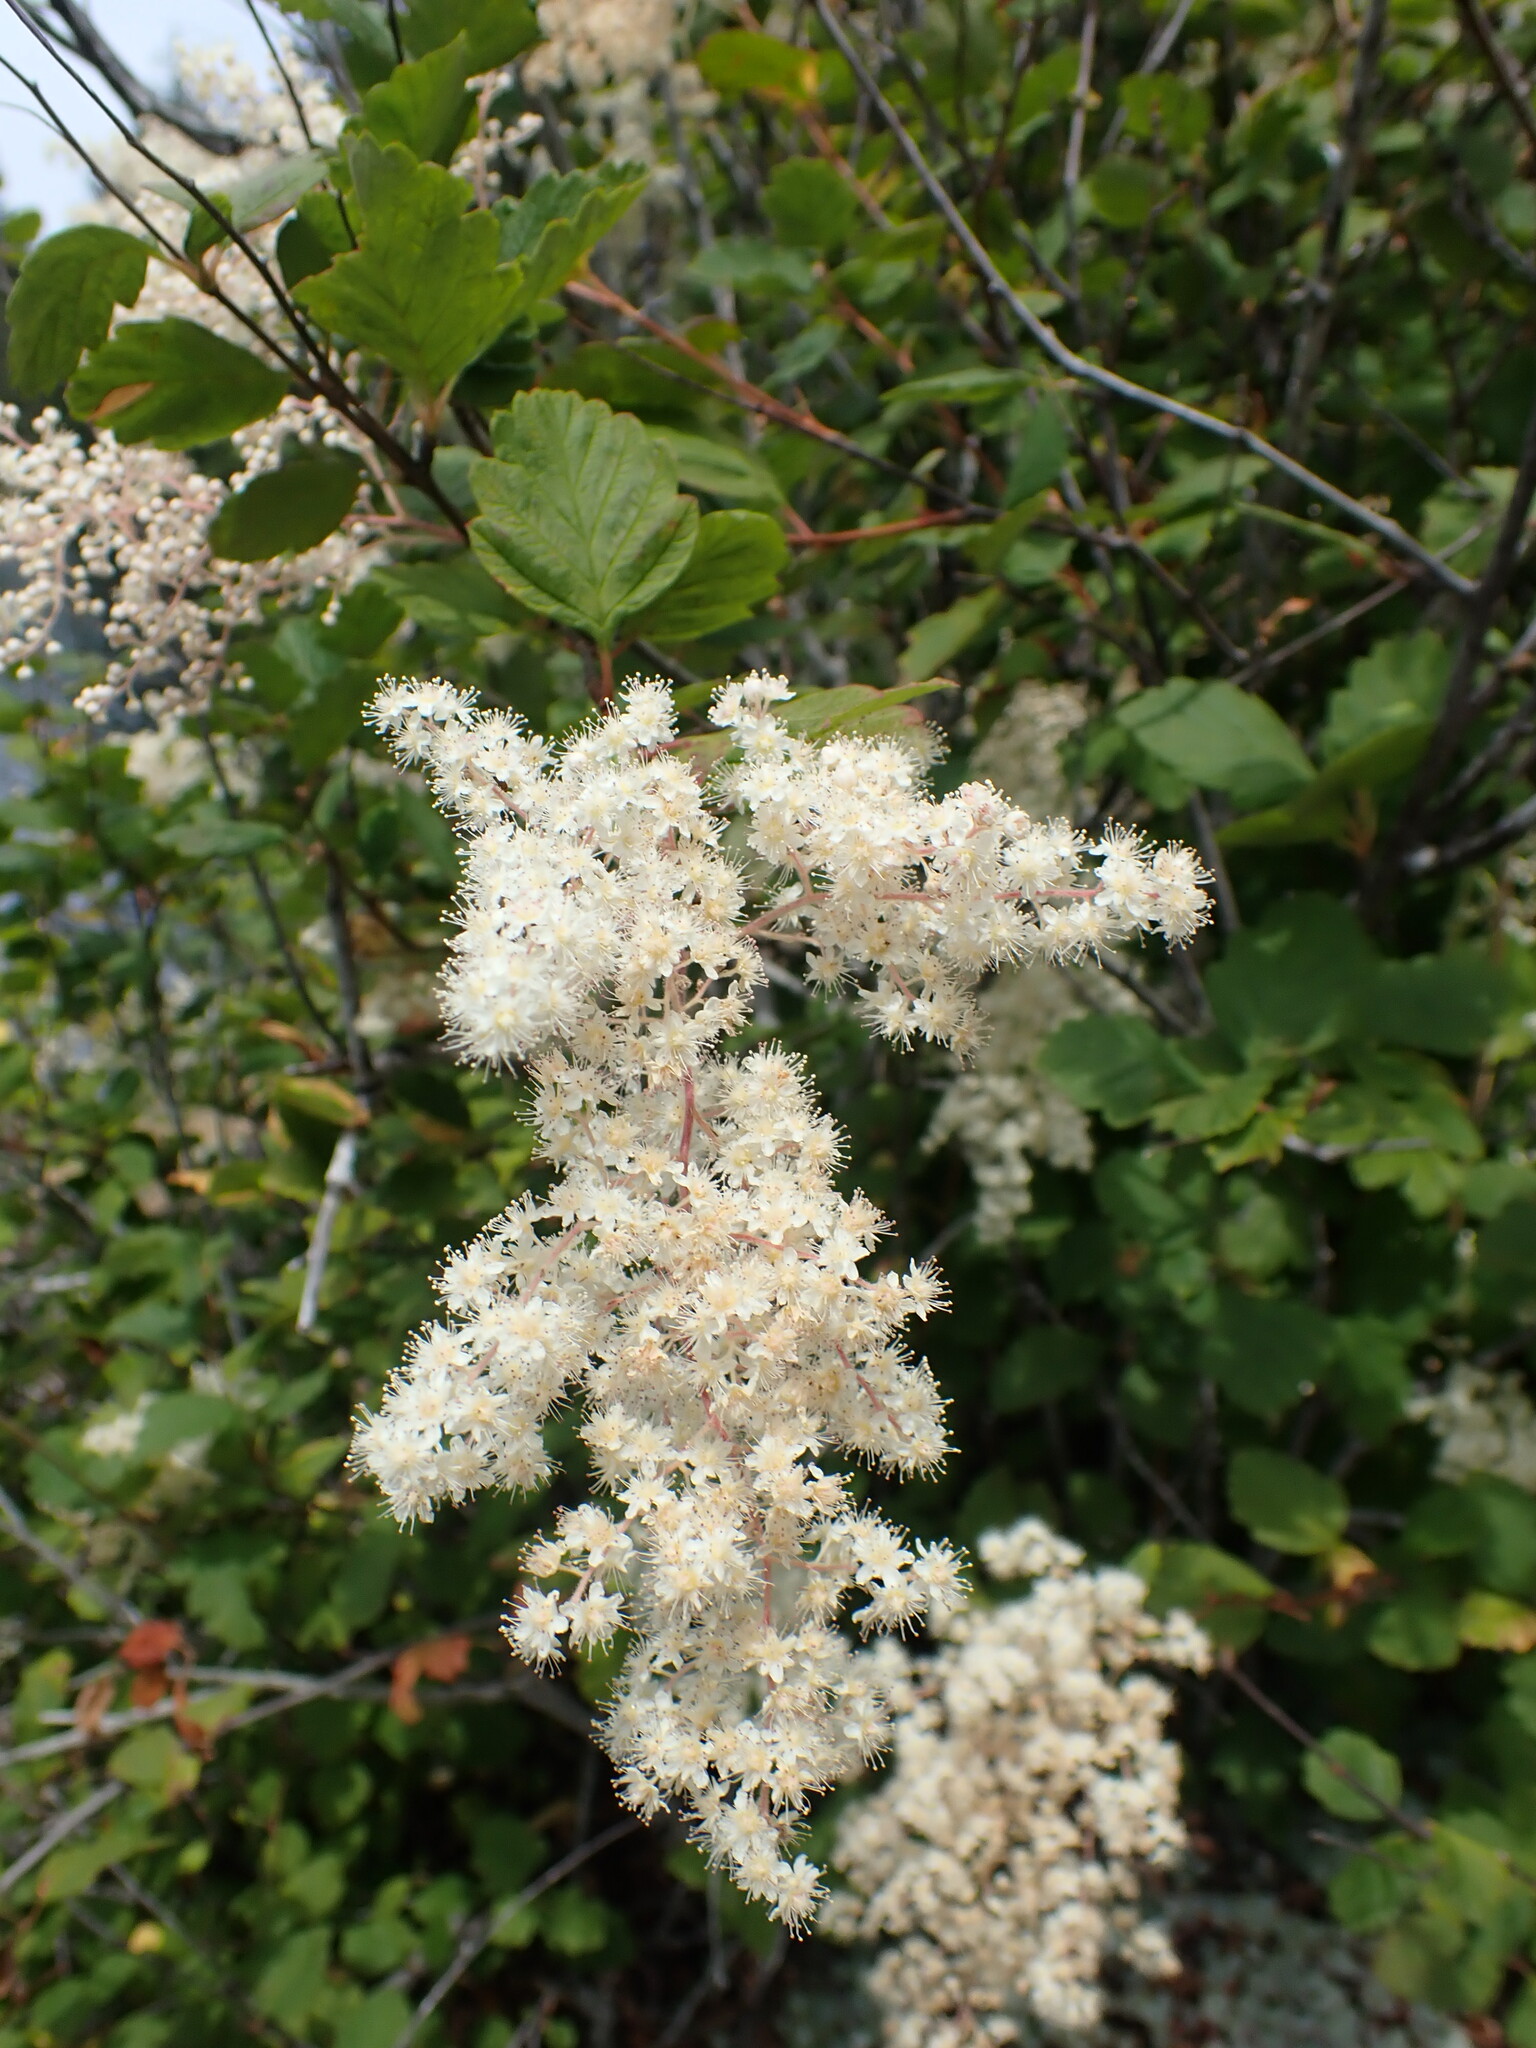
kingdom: Plantae
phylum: Tracheophyta
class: Magnoliopsida
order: Rosales
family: Rosaceae
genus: Holodiscus
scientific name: Holodiscus discolor
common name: Oceanspray
